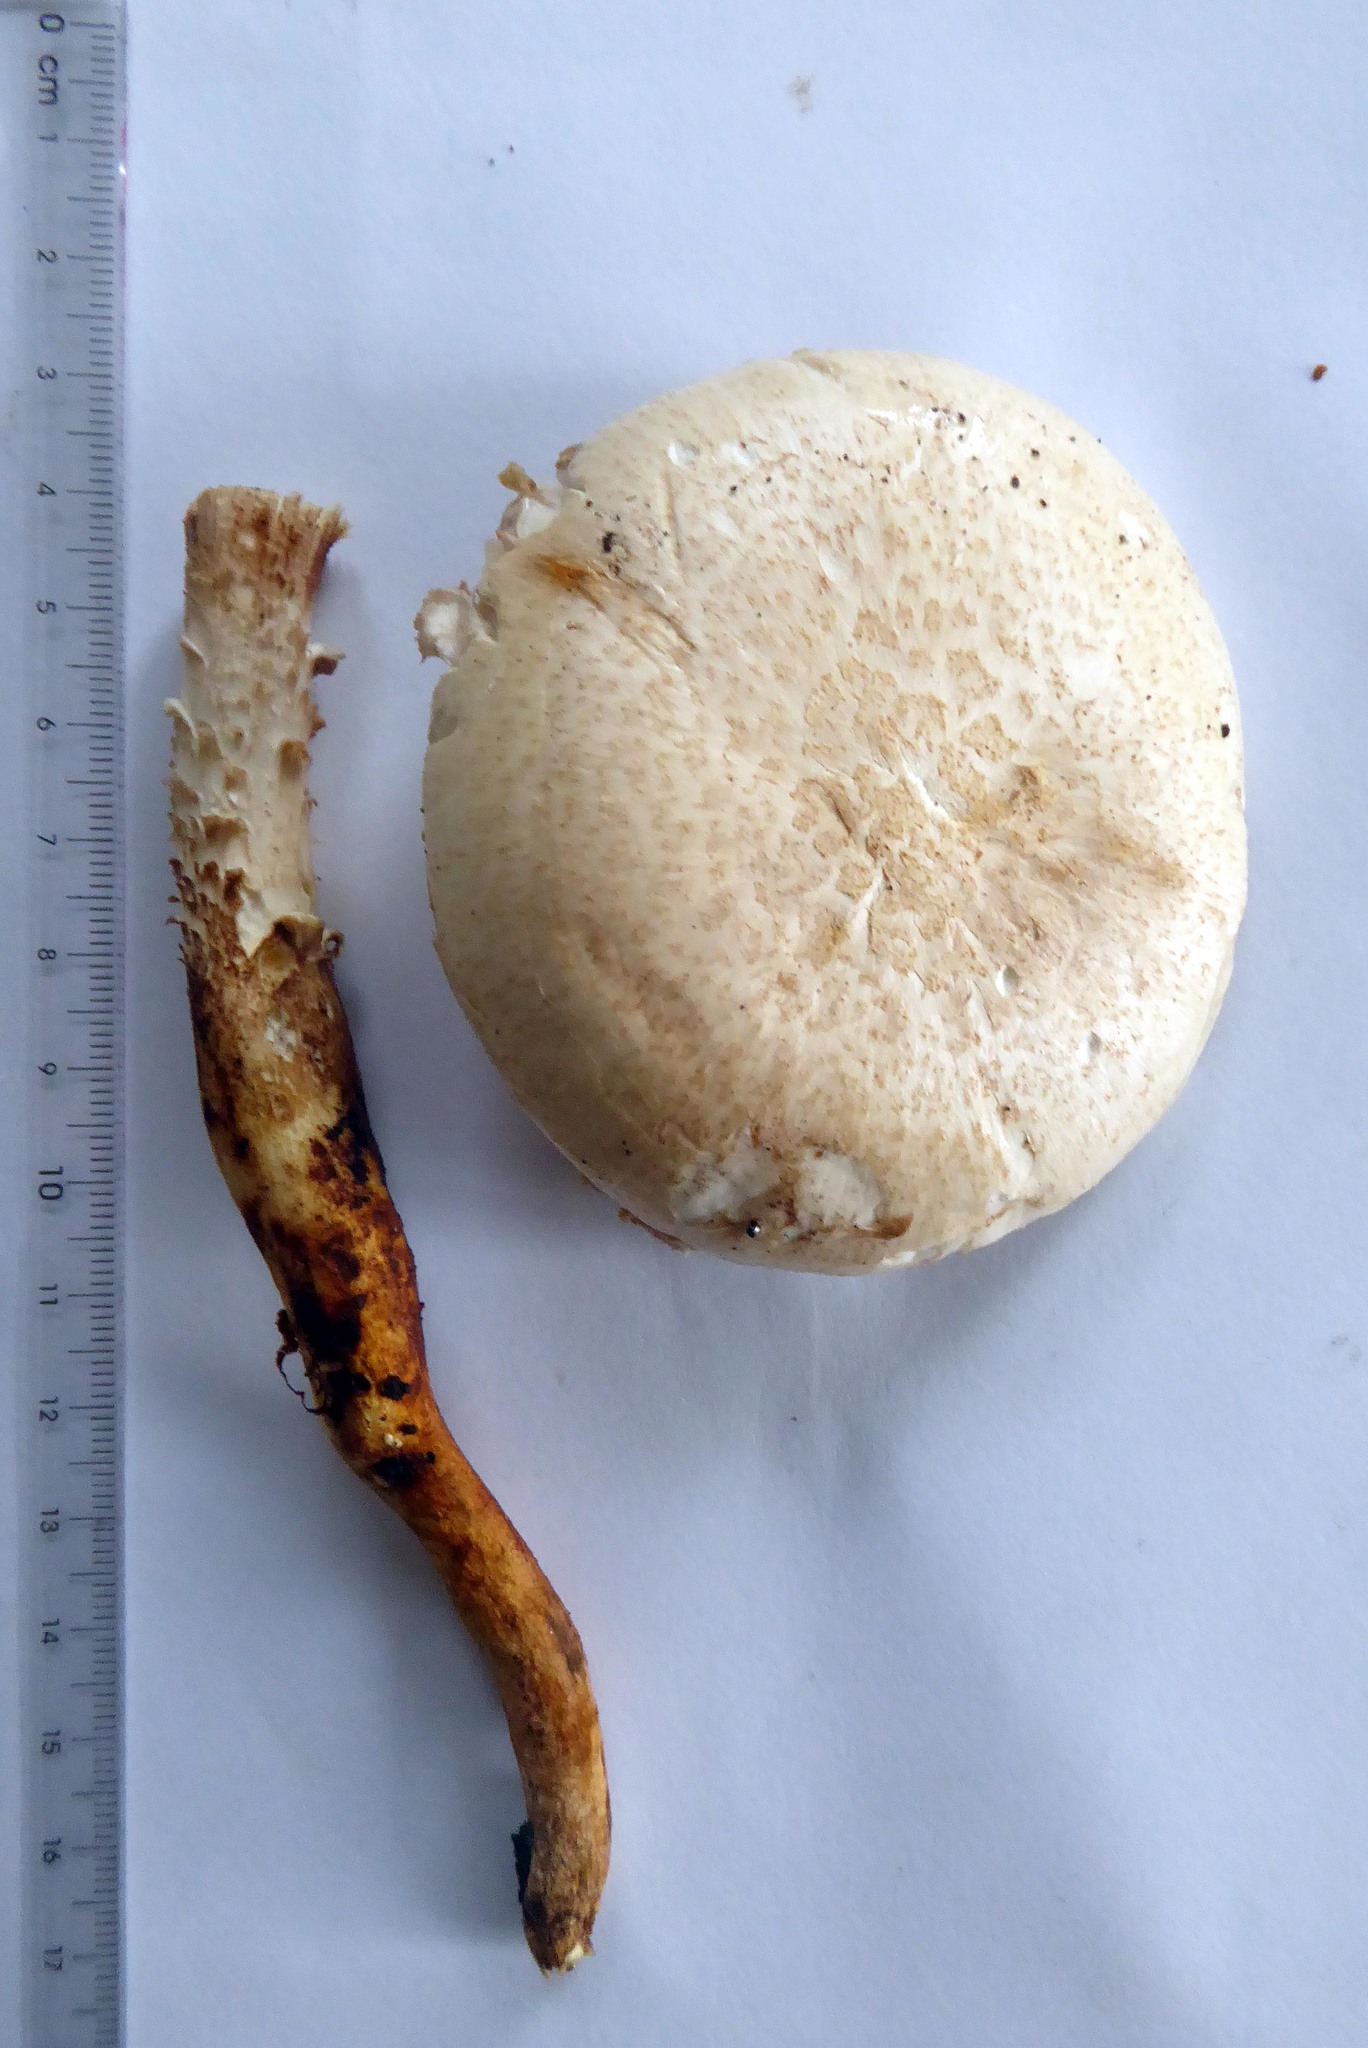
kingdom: Fungi
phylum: Basidiomycota
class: Agaricomycetes
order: Gloeophyllales
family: Gloeophyllaceae
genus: Neolentinus
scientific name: Neolentinus lepideus
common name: Scaly sawgill
